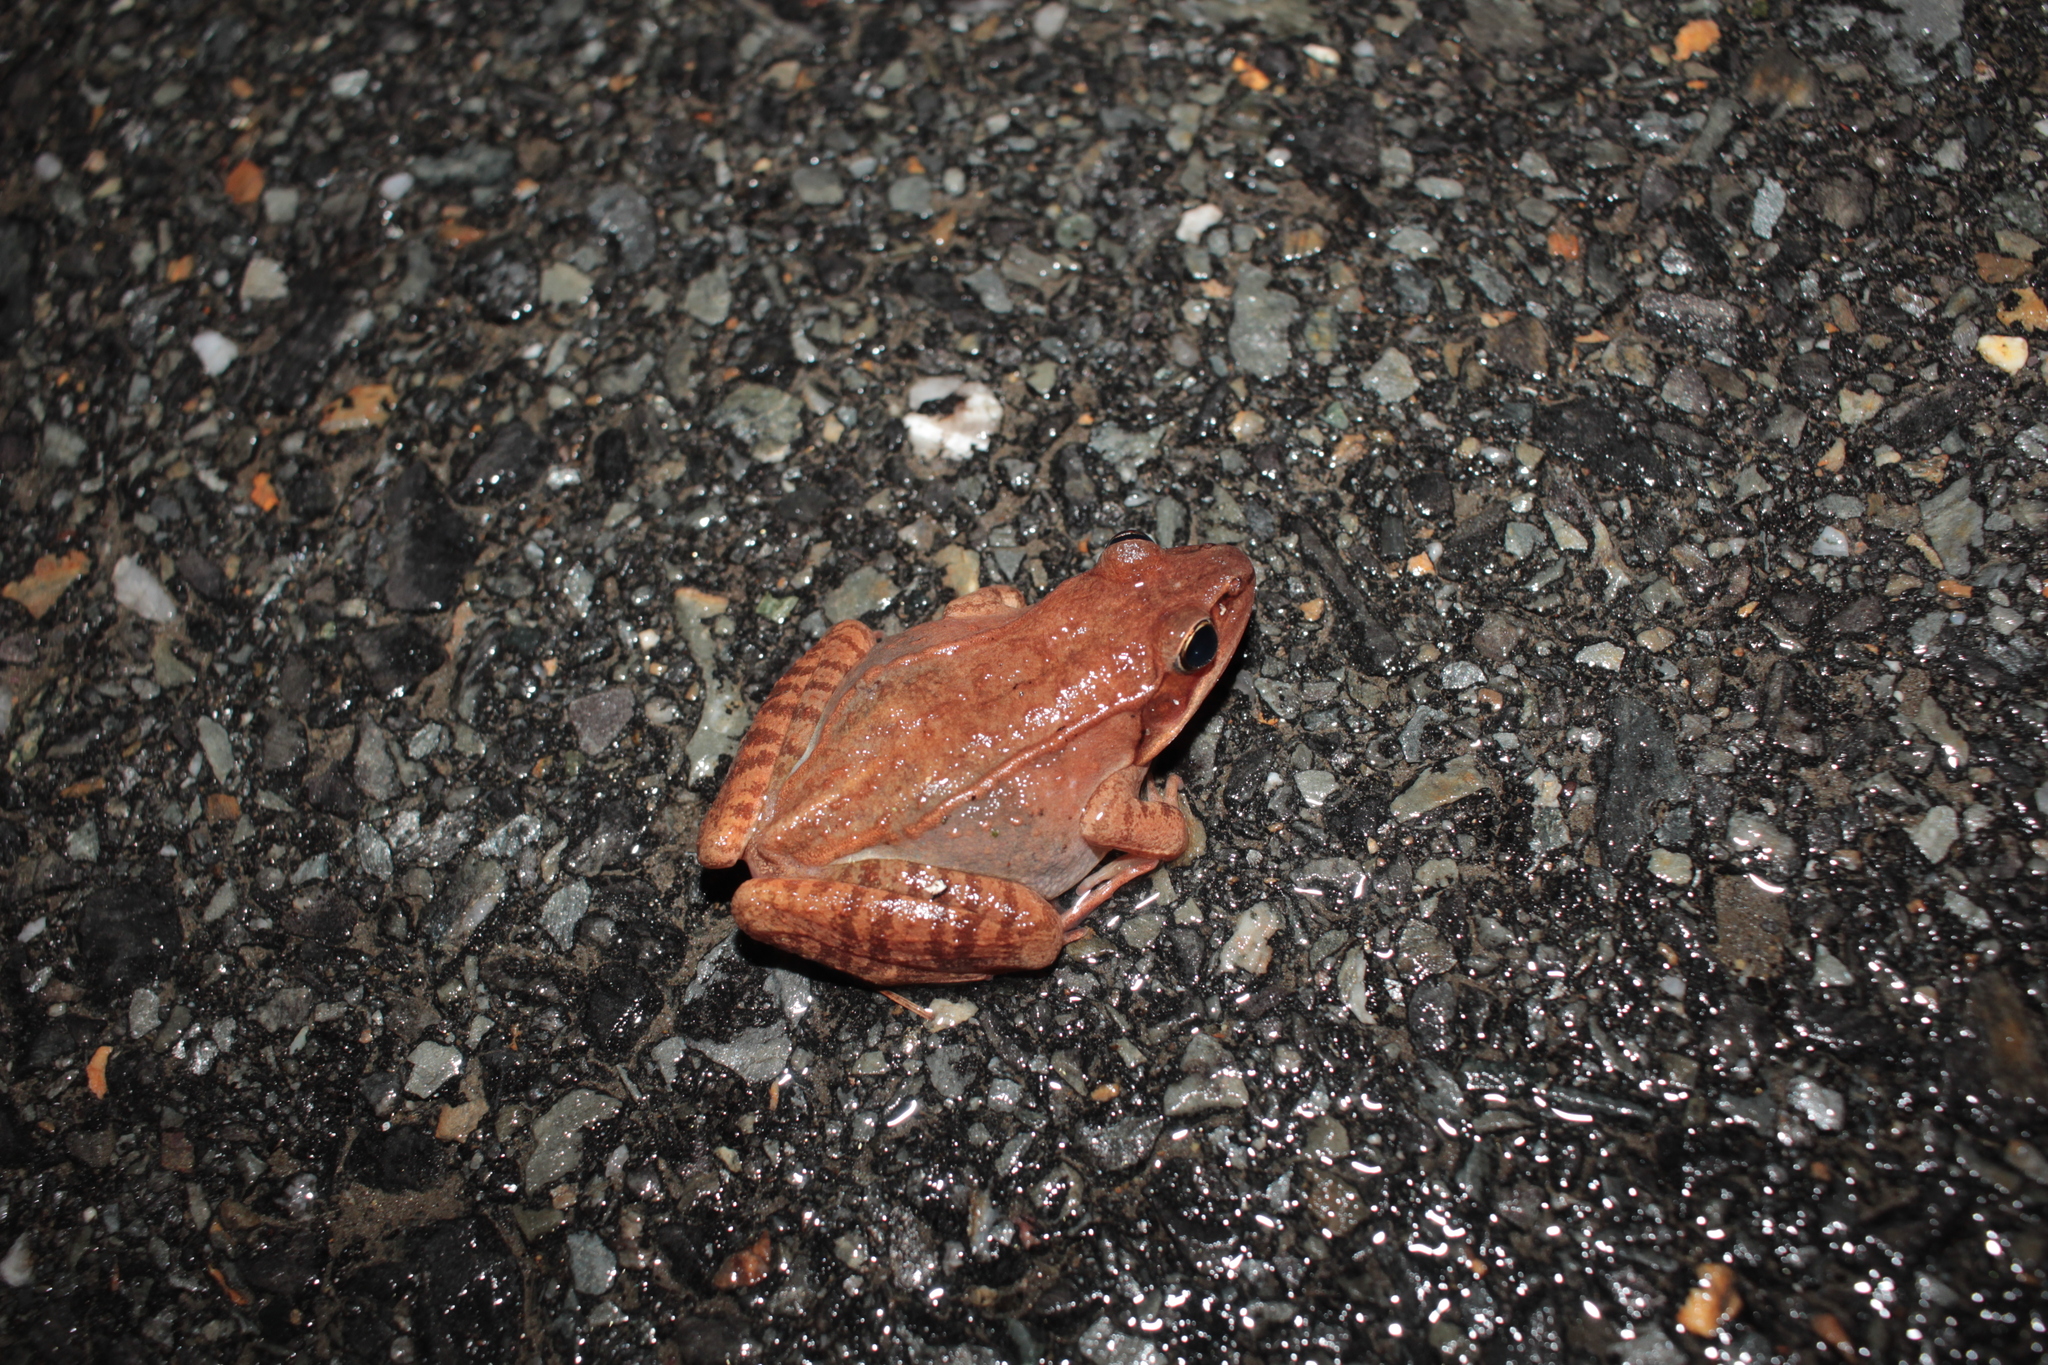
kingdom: Animalia
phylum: Chordata
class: Amphibia
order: Anura
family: Ranidae
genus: Lithobates
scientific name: Lithobates sylvaticus
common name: Wood frog
